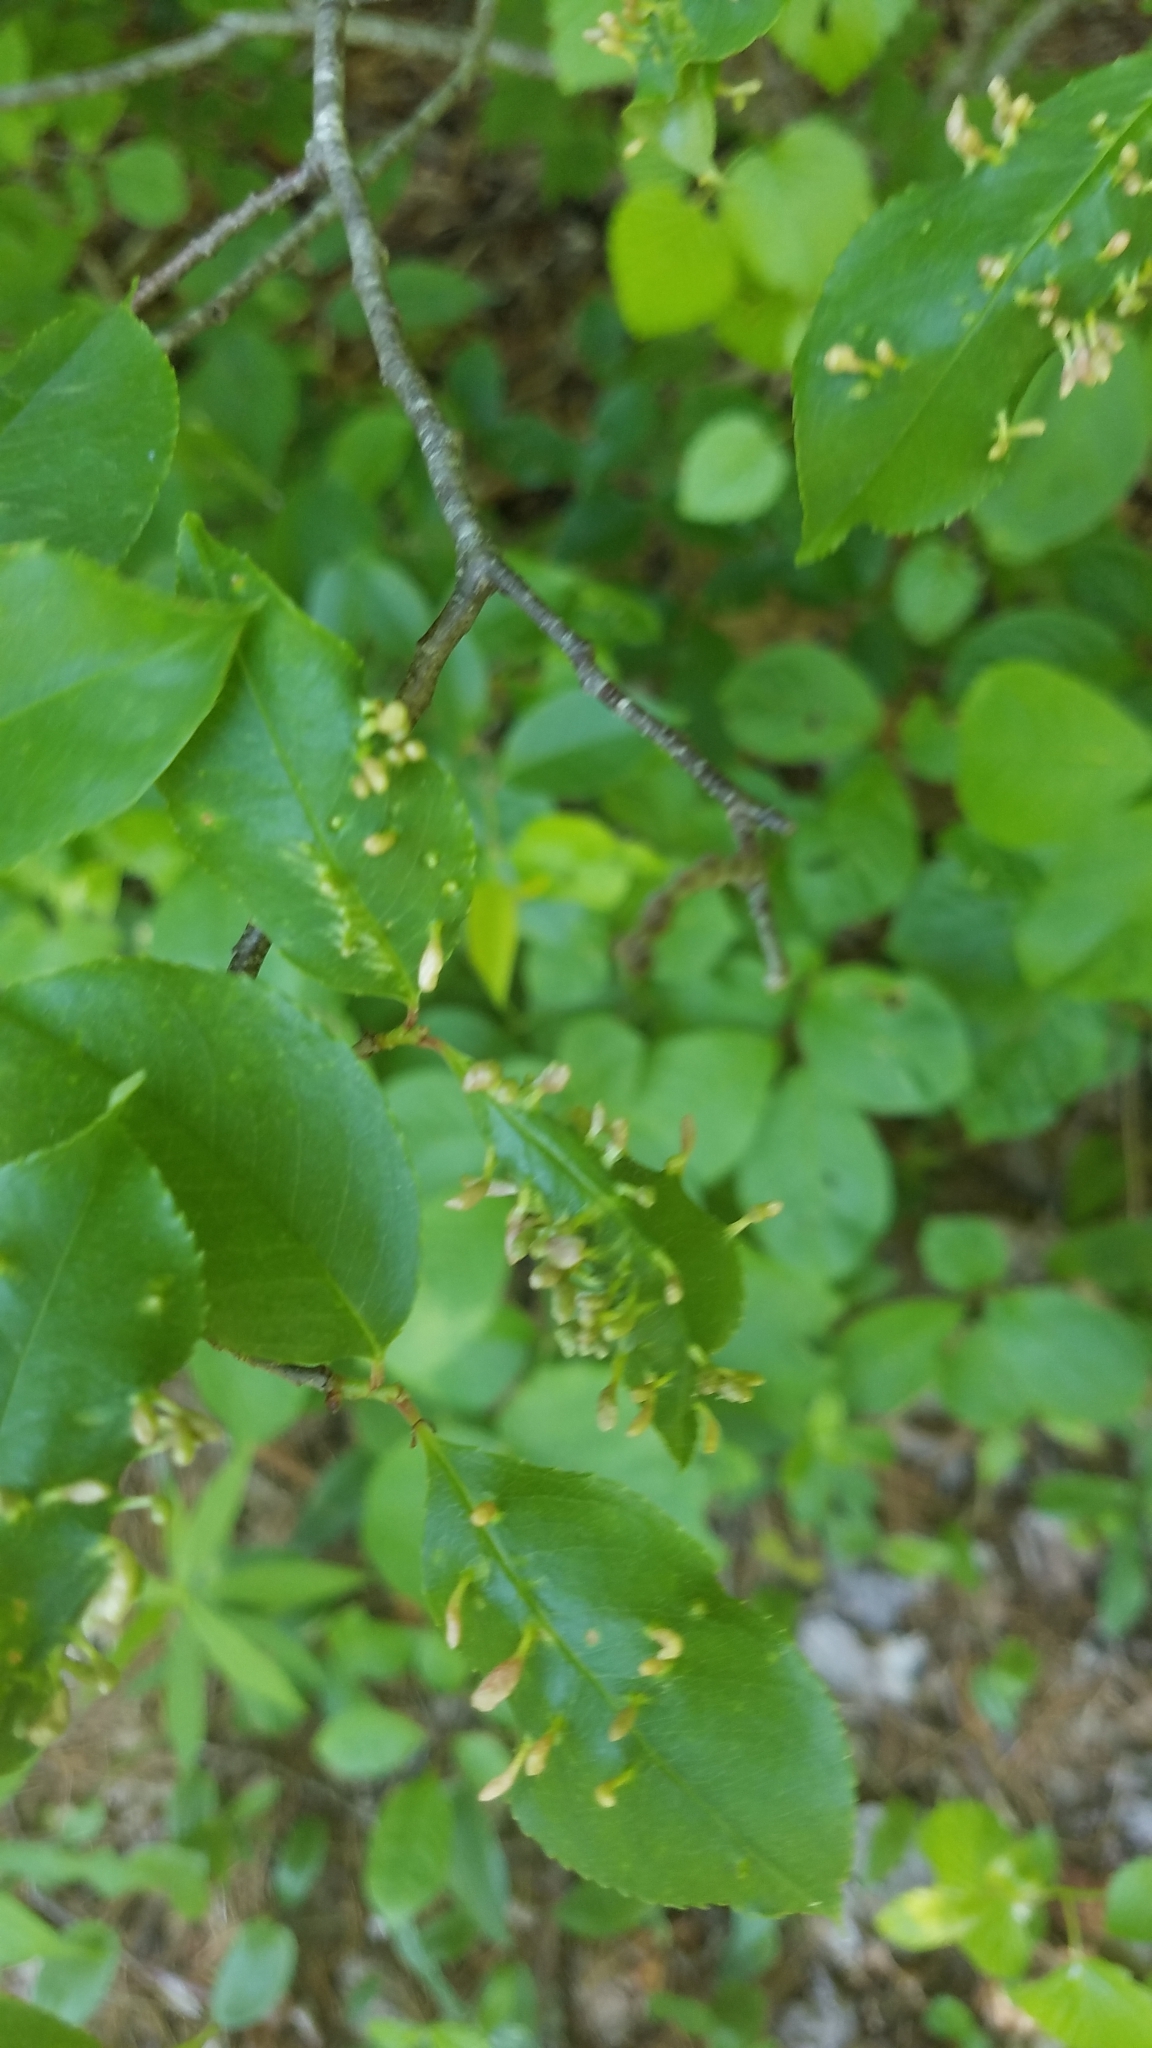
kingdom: Animalia
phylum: Arthropoda
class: Arachnida
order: Trombidiformes
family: Eriophyidae
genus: Eriophyes
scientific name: Eriophyes
